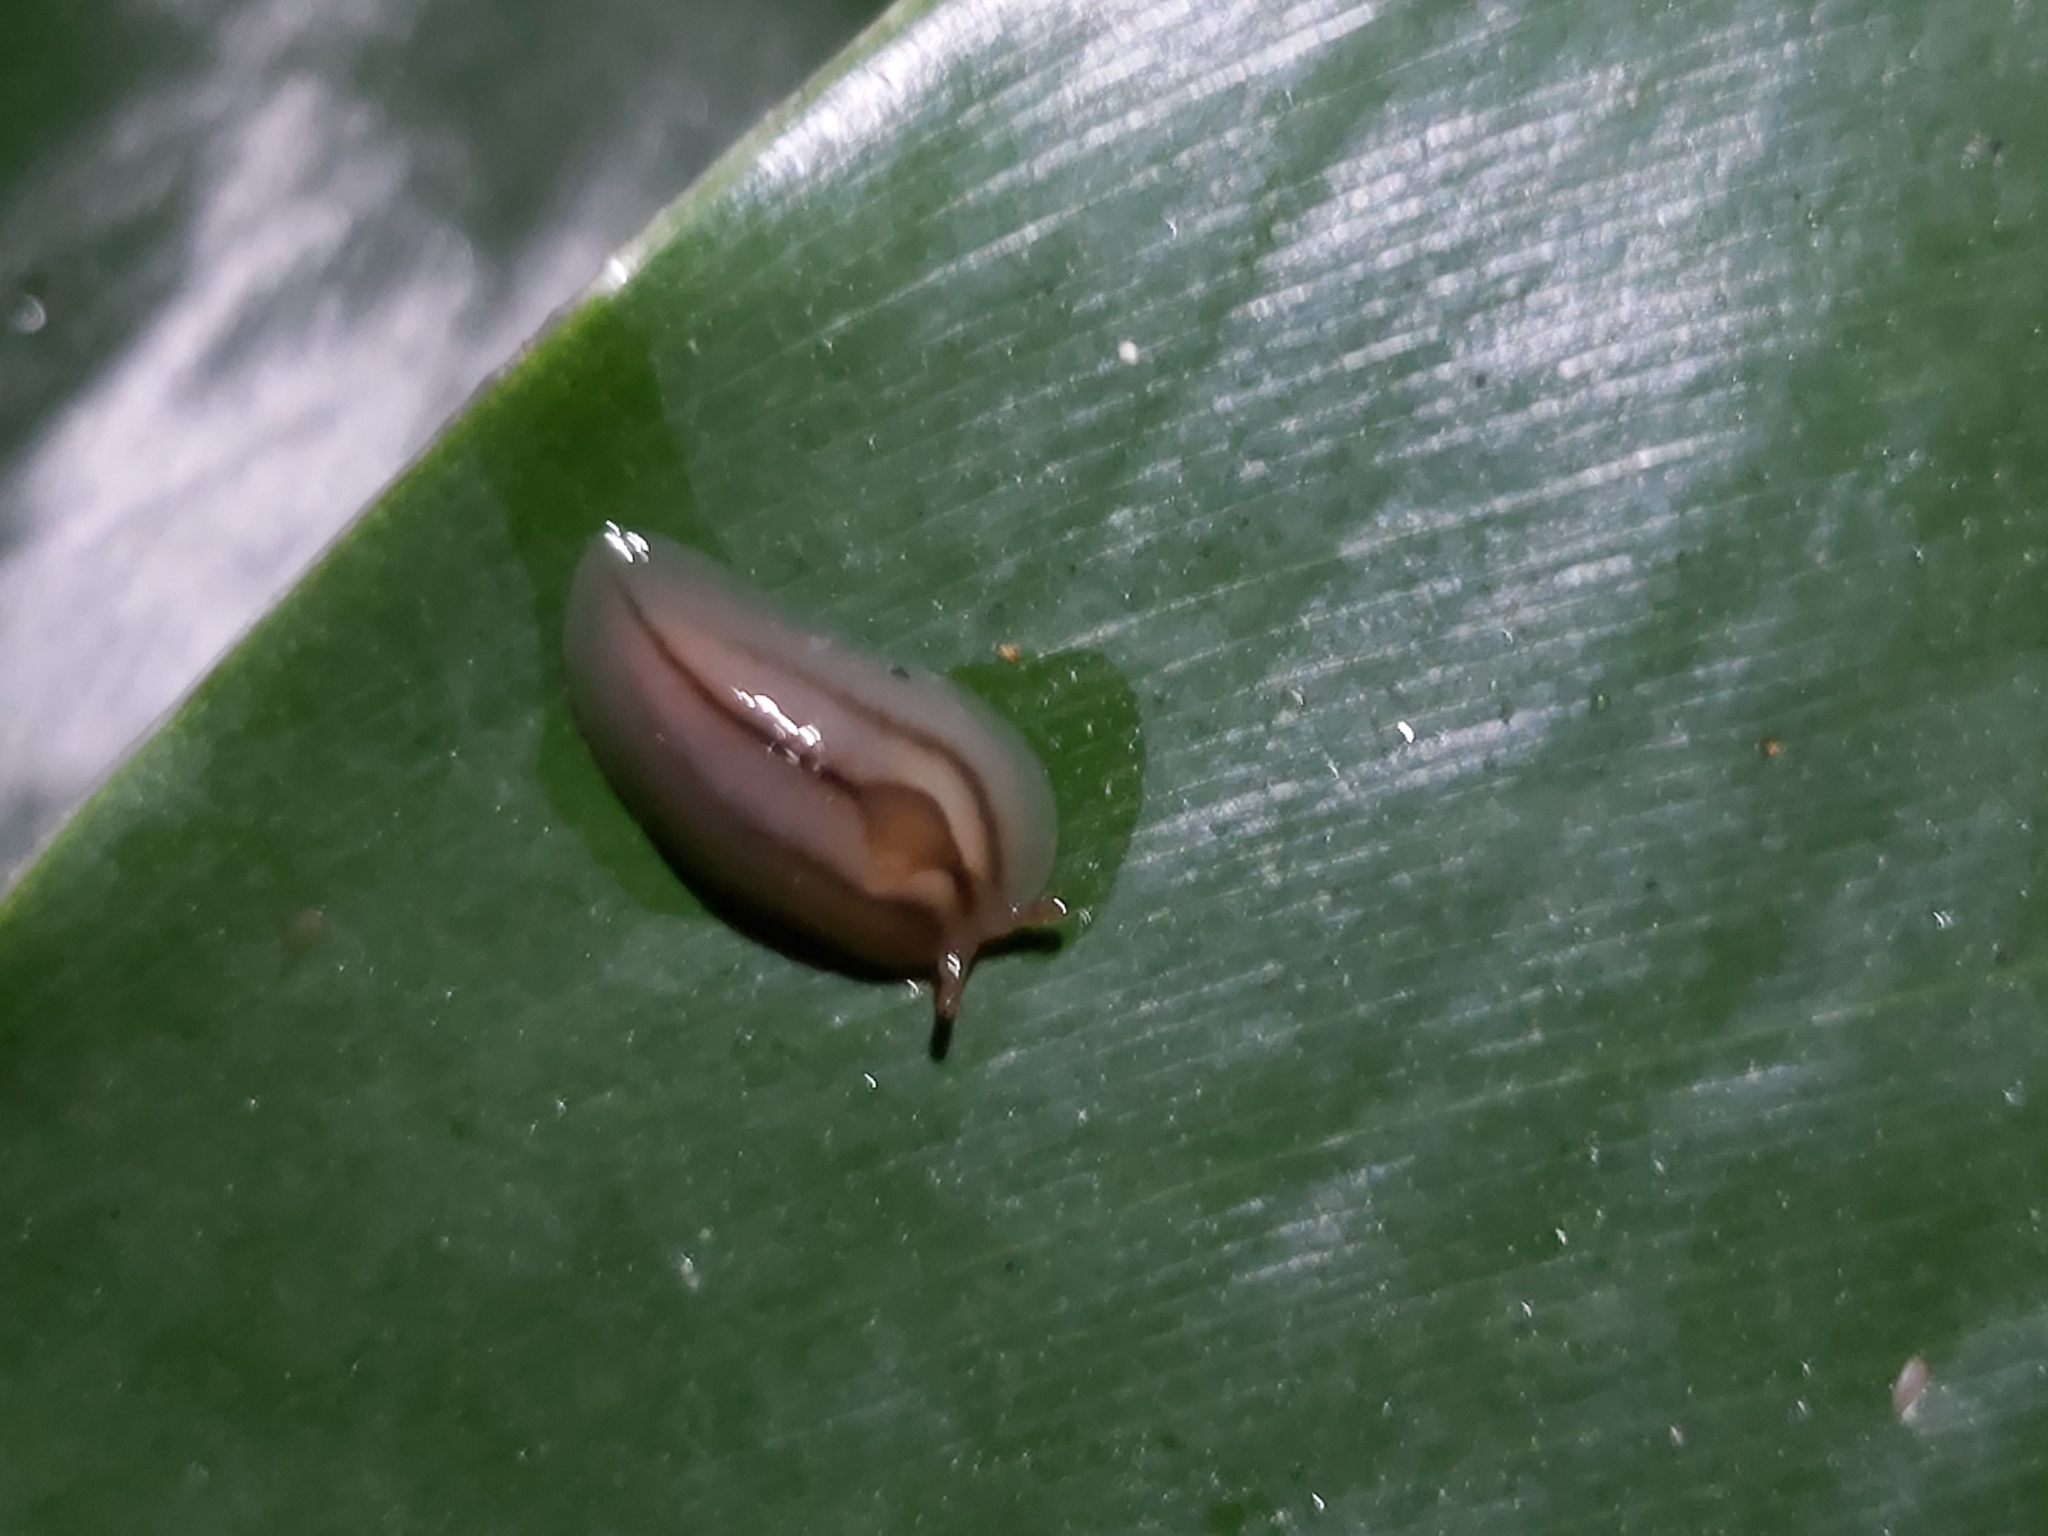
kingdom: Animalia
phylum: Mollusca
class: Gastropoda
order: Stylommatophora
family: Athoracophoridae
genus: Triboniophorus
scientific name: Triboniophorus graeffei
